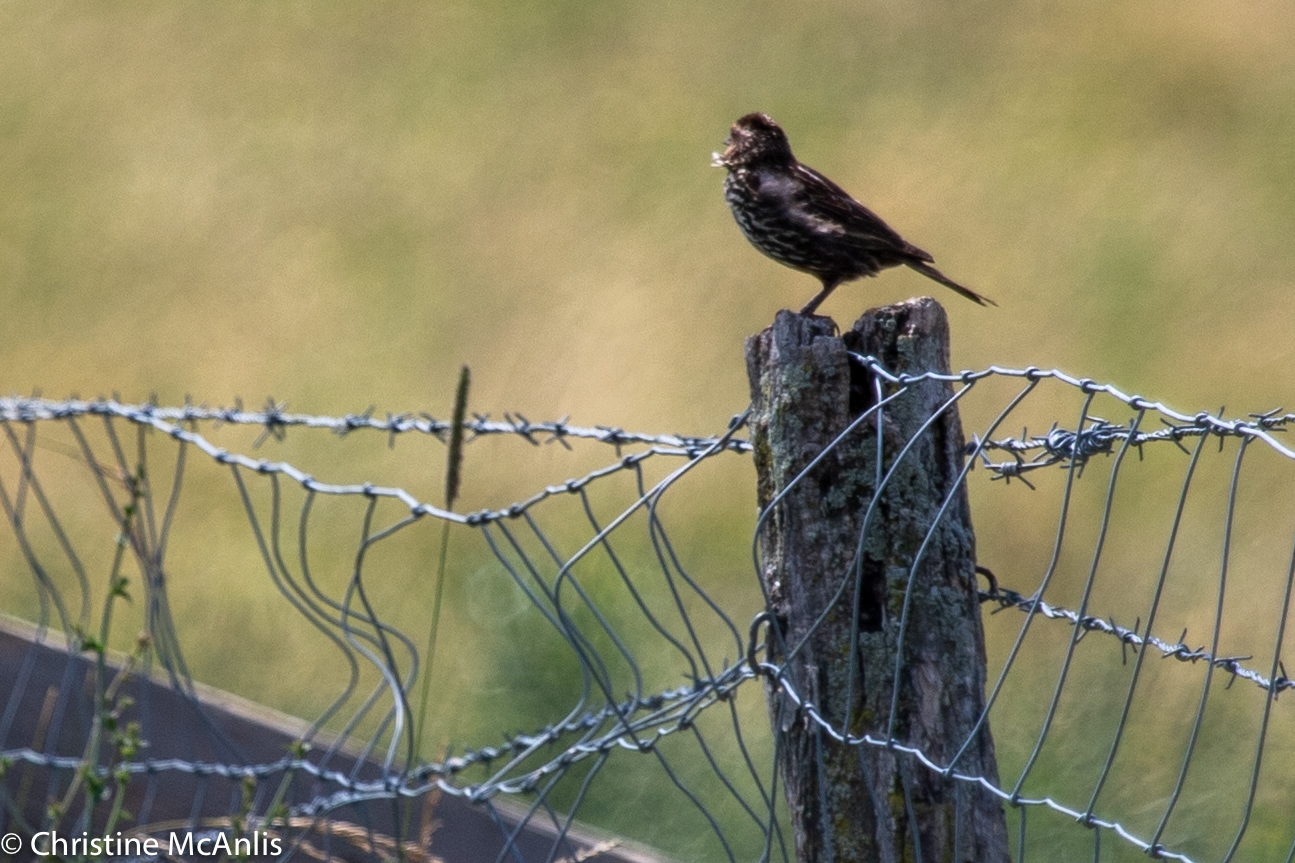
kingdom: Animalia
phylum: Chordata
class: Aves
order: Passeriformes
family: Icteridae
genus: Agelaius
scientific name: Agelaius phoeniceus
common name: Red-winged blackbird
